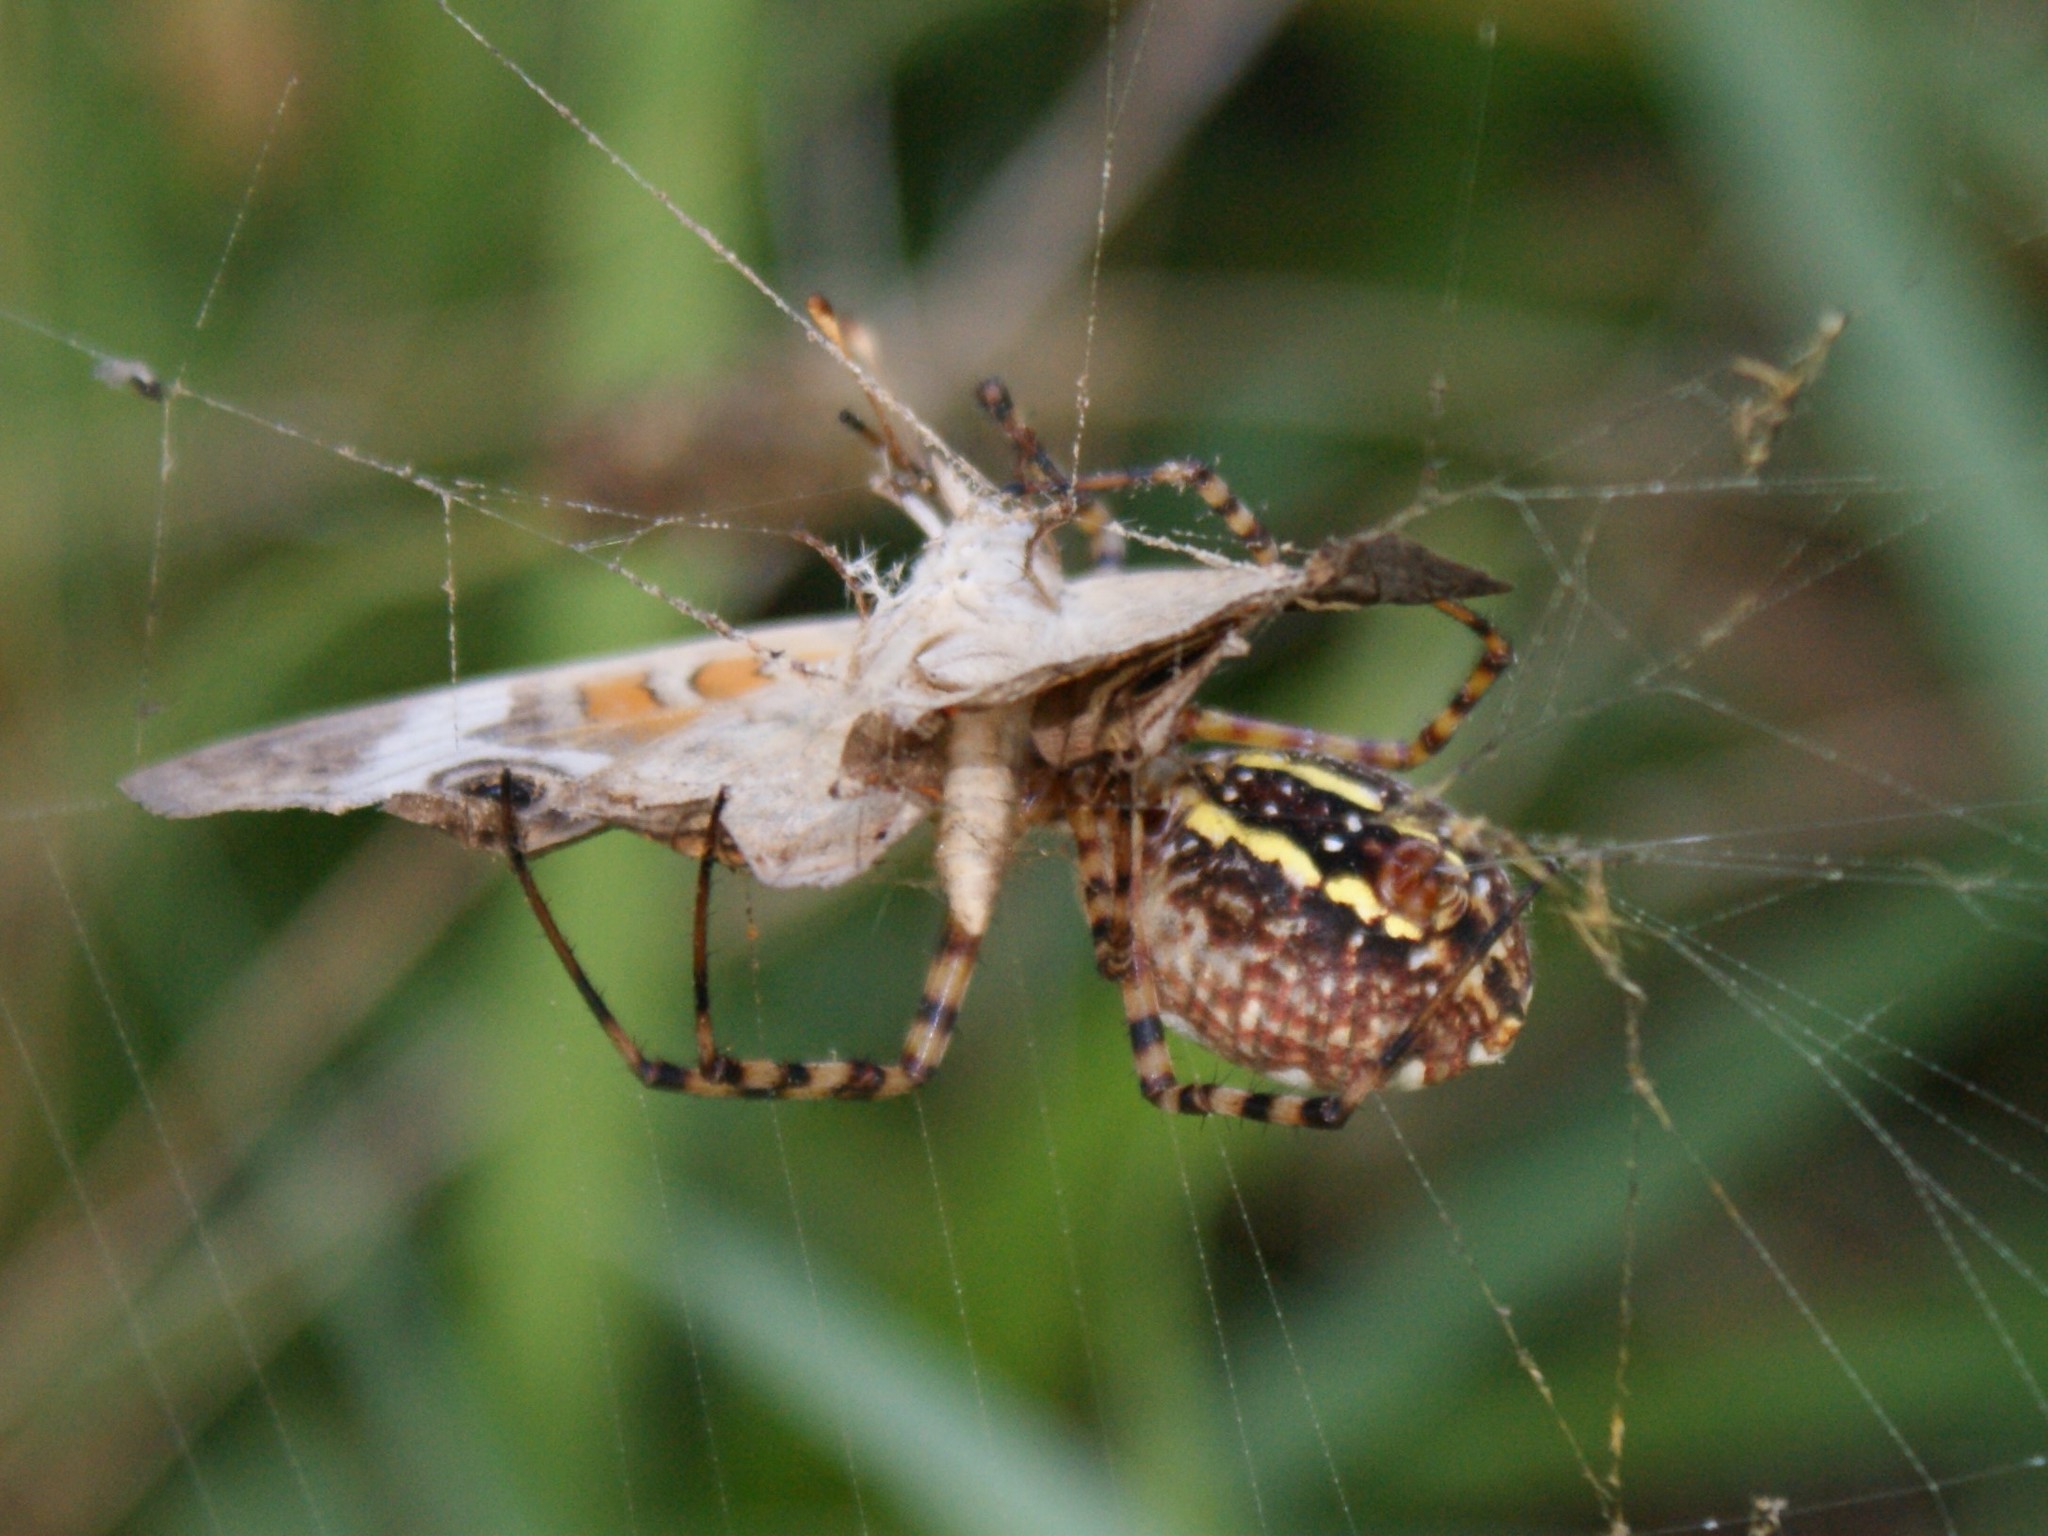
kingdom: Animalia
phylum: Arthropoda
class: Insecta
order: Lepidoptera
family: Nymphalidae
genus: Junonia
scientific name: Junonia coenia
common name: Common buckeye
